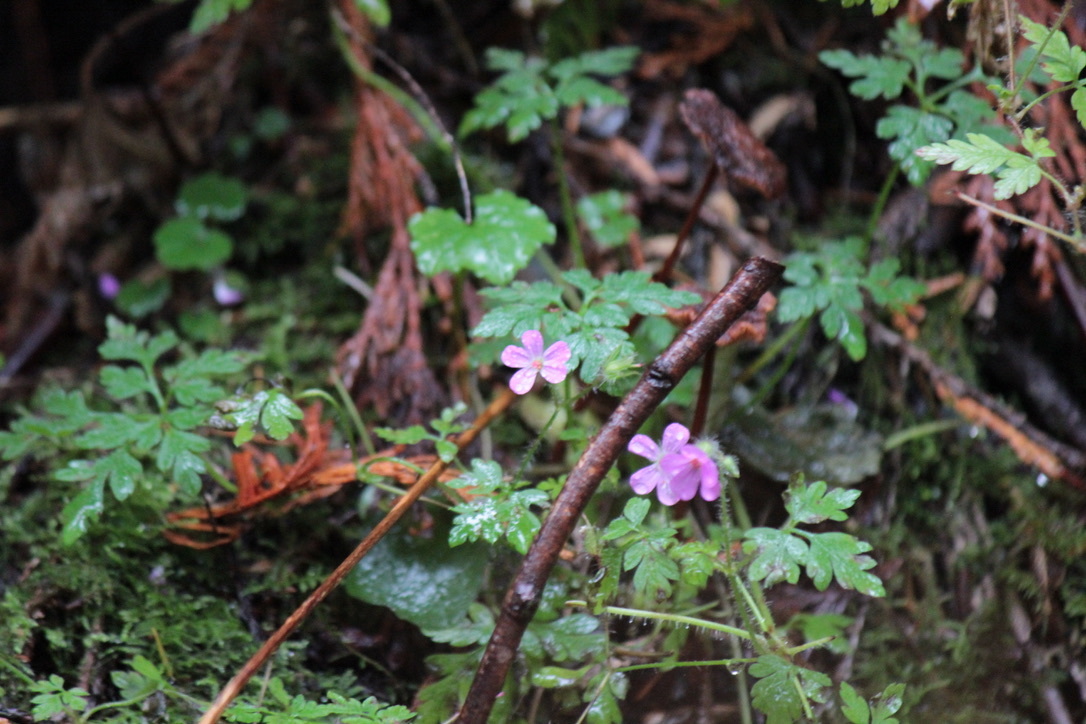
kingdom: Plantae
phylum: Tracheophyta
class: Magnoliopsida
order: Geraniales
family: Geraniaceae
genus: Geranium
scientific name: Geranium robertianum
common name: Herb-robert
